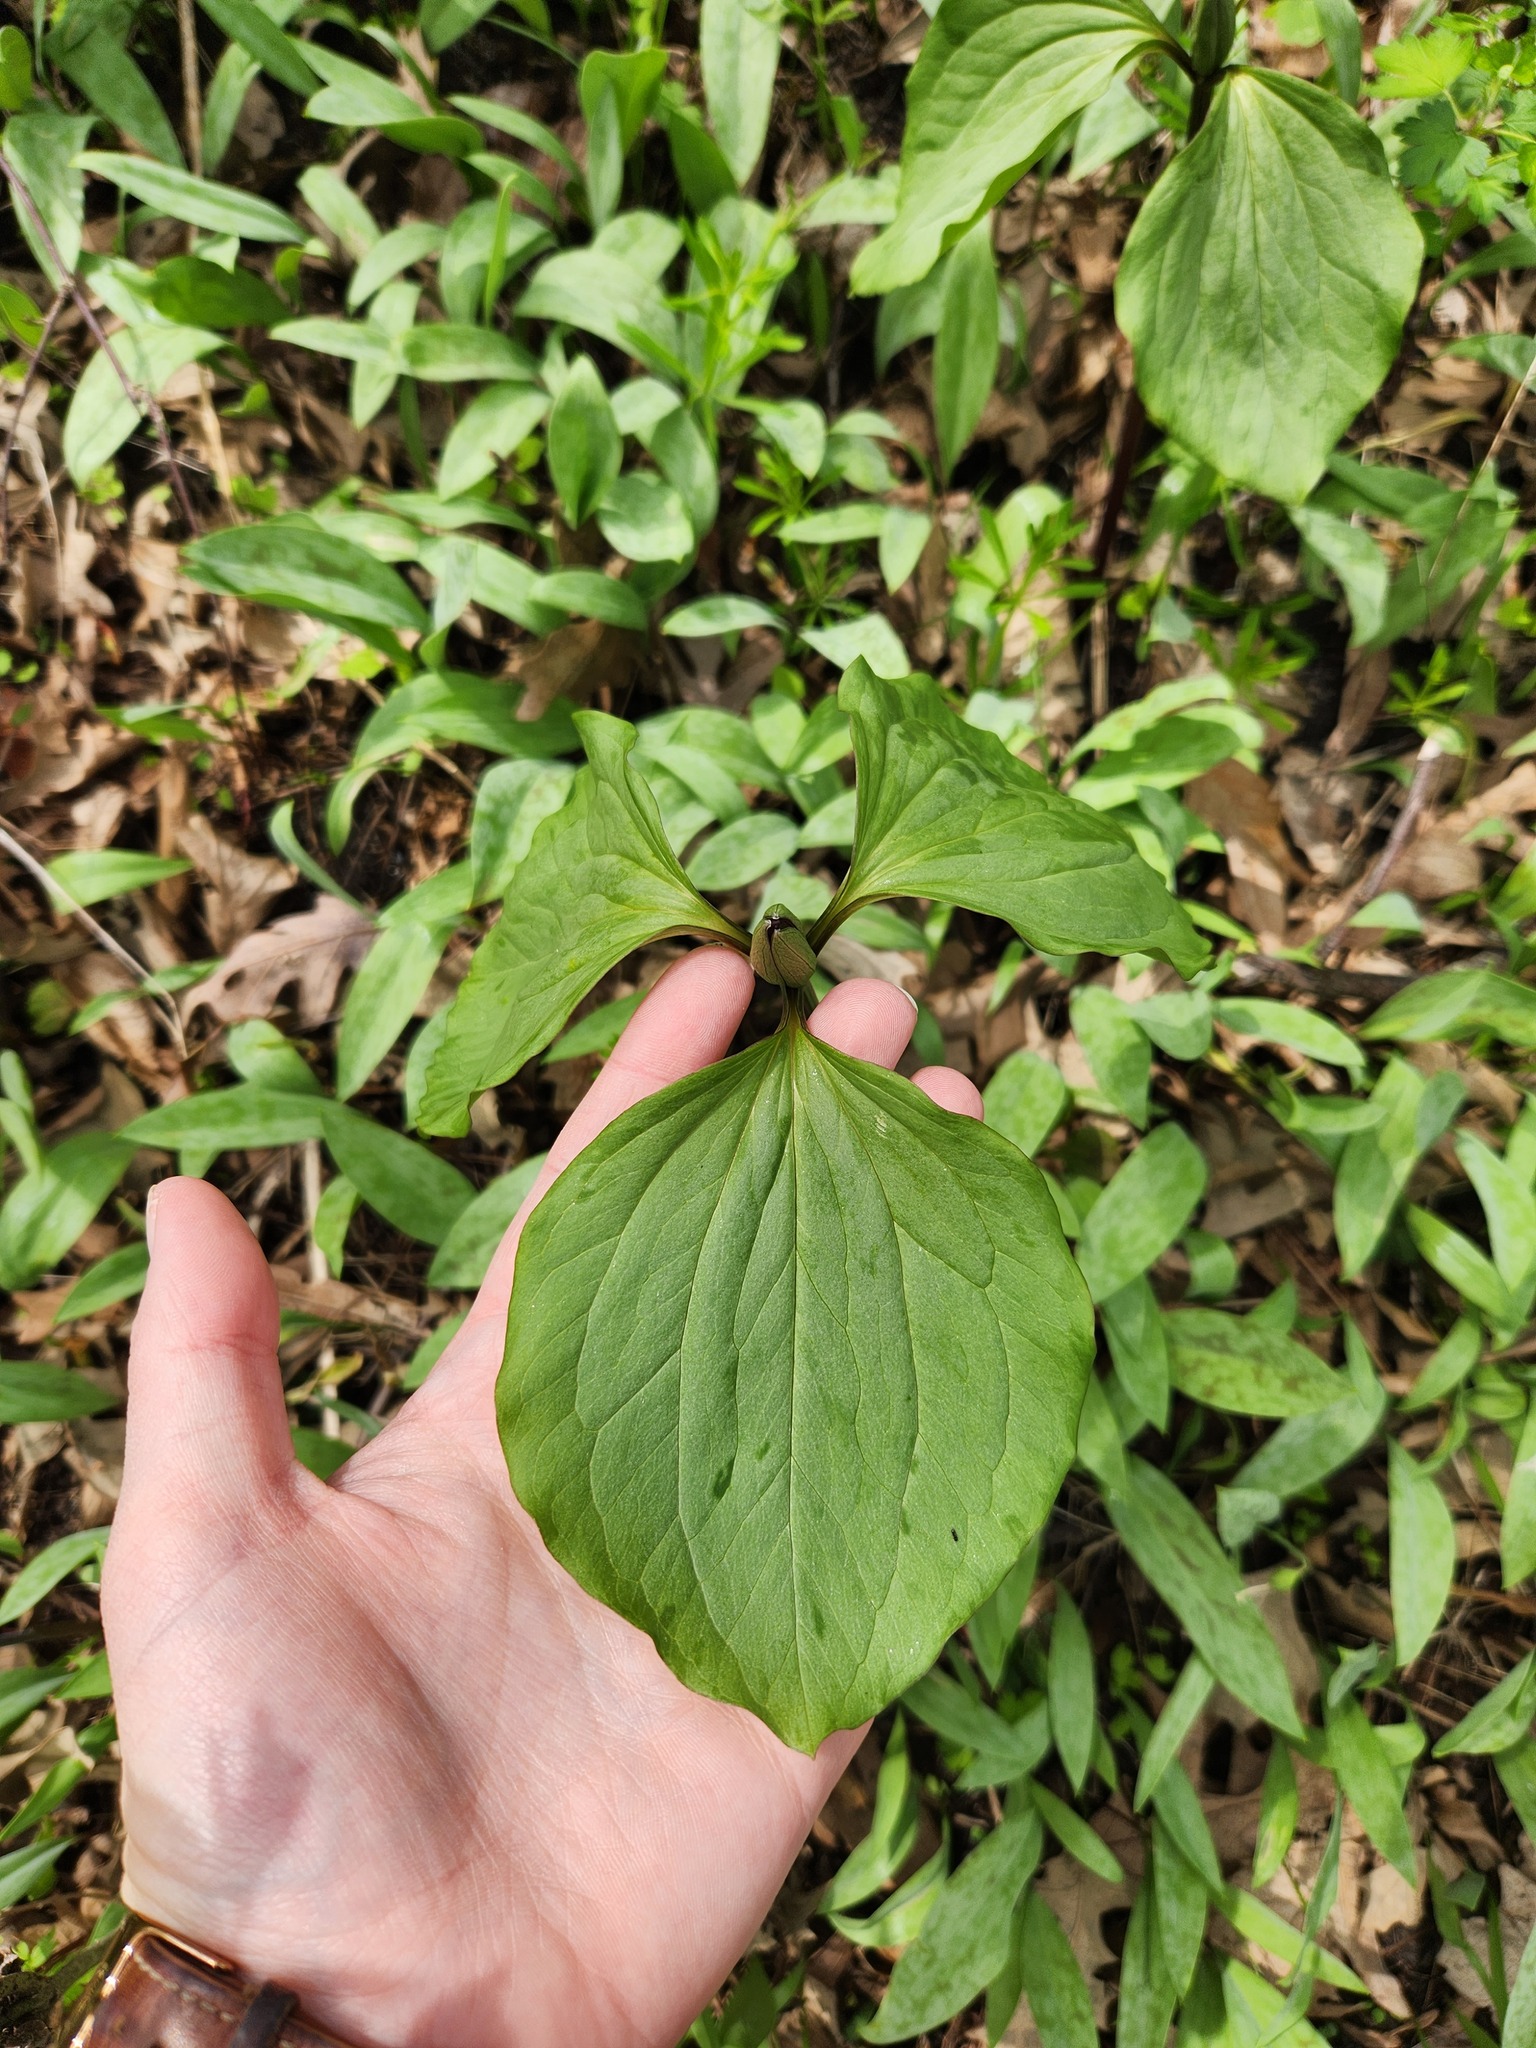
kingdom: Plantae
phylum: Tracheophyta
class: Liliopsida
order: Liliales
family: Melanthiaceae
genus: Trillium
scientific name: Trillium recurvatum
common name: Bloody butcher
